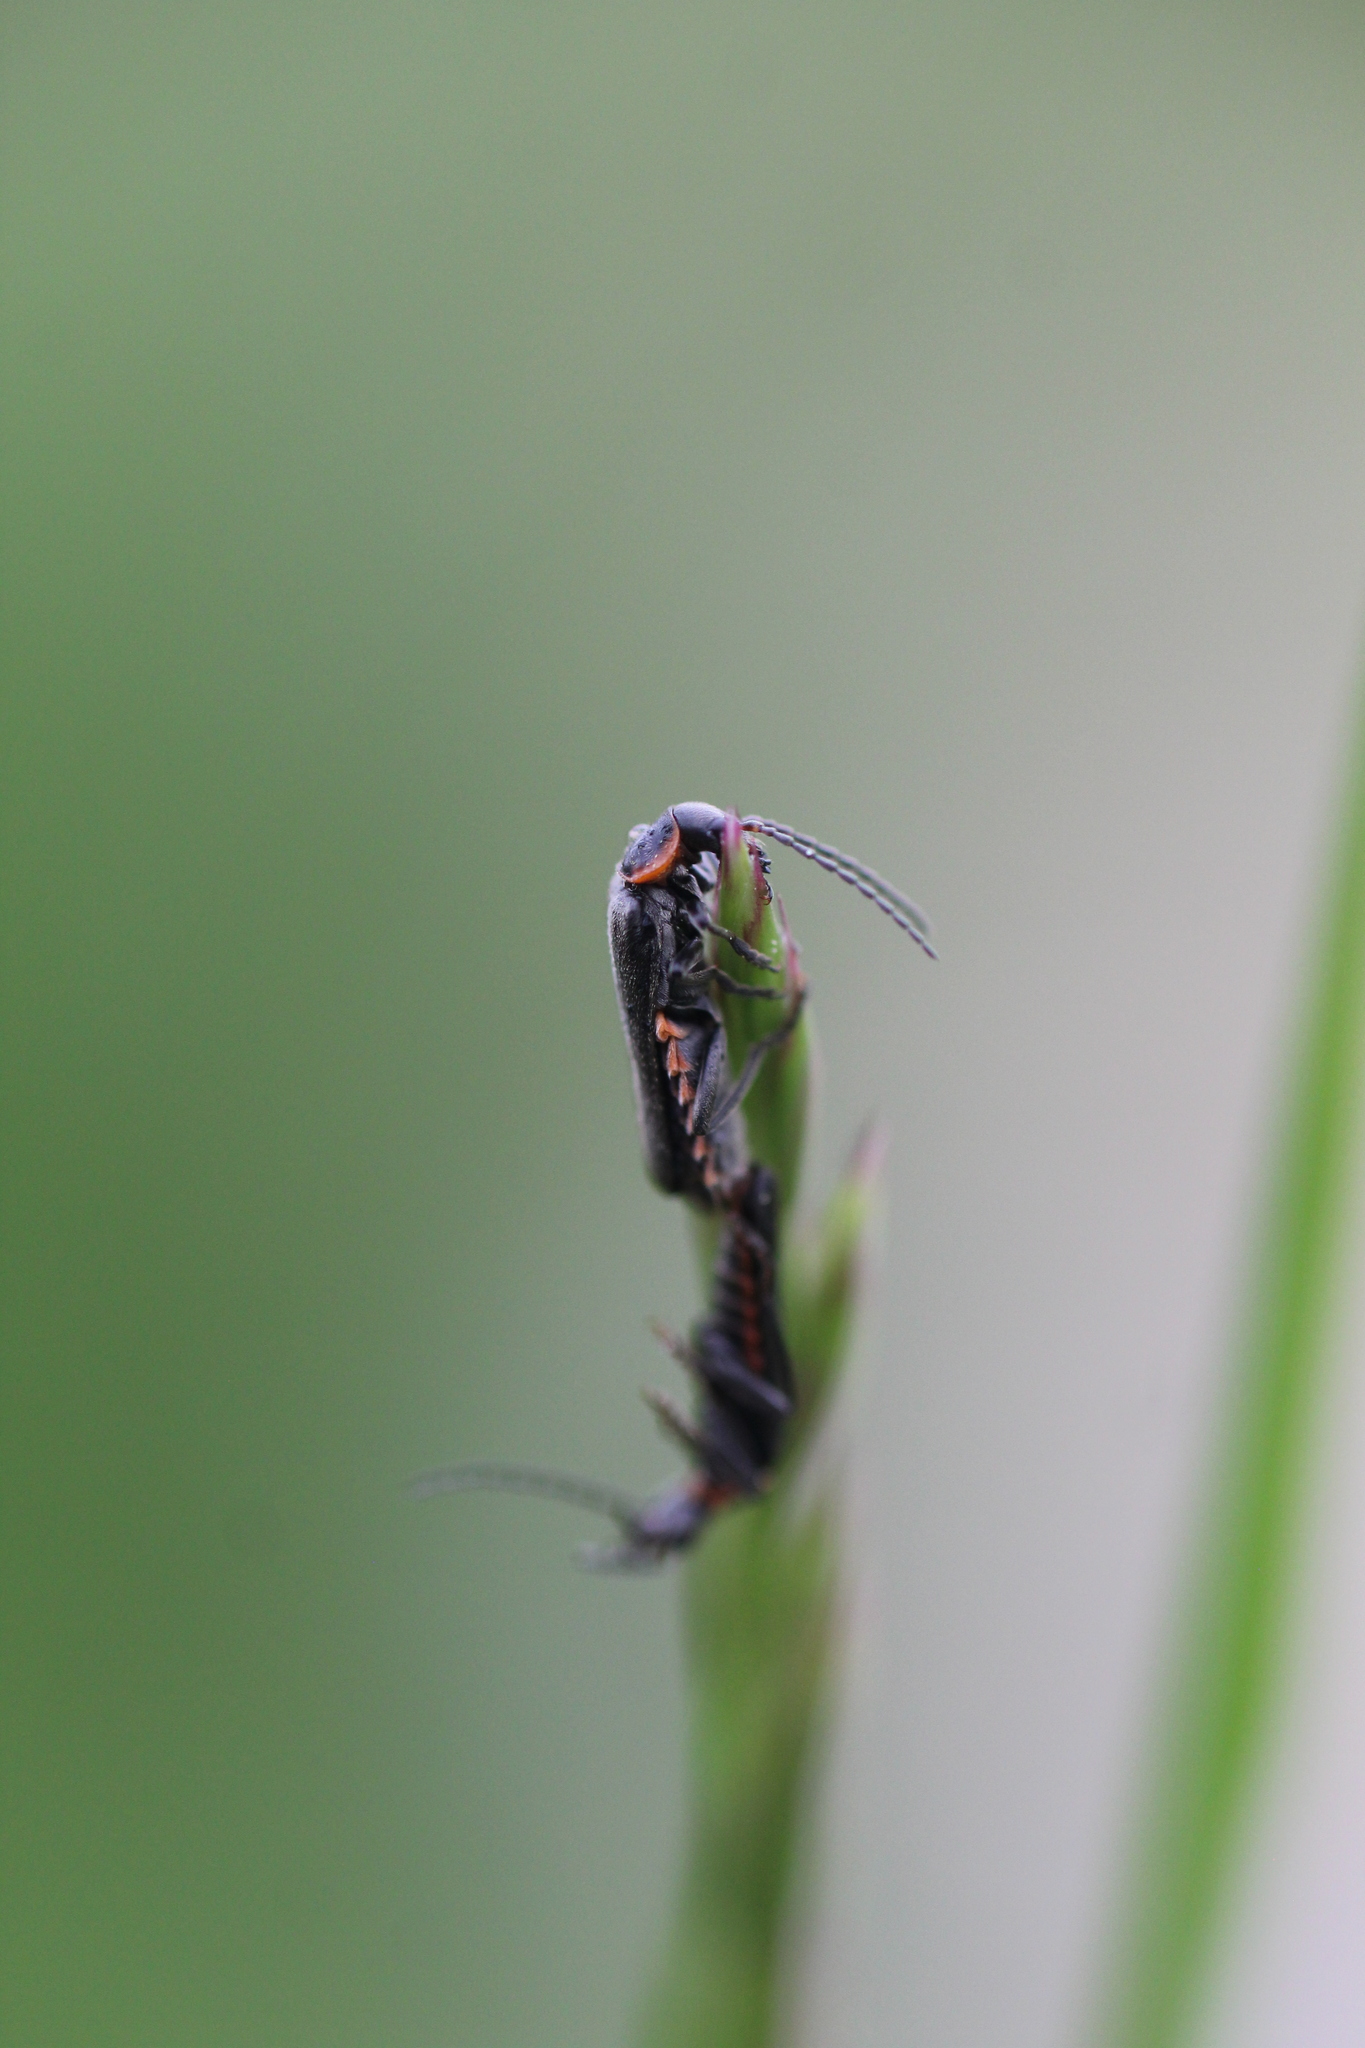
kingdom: Animalia
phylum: Arthropoda
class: Insecta
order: Coleoptera
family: Cantharidae
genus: Cantharis
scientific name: Cantharis pulicaria
